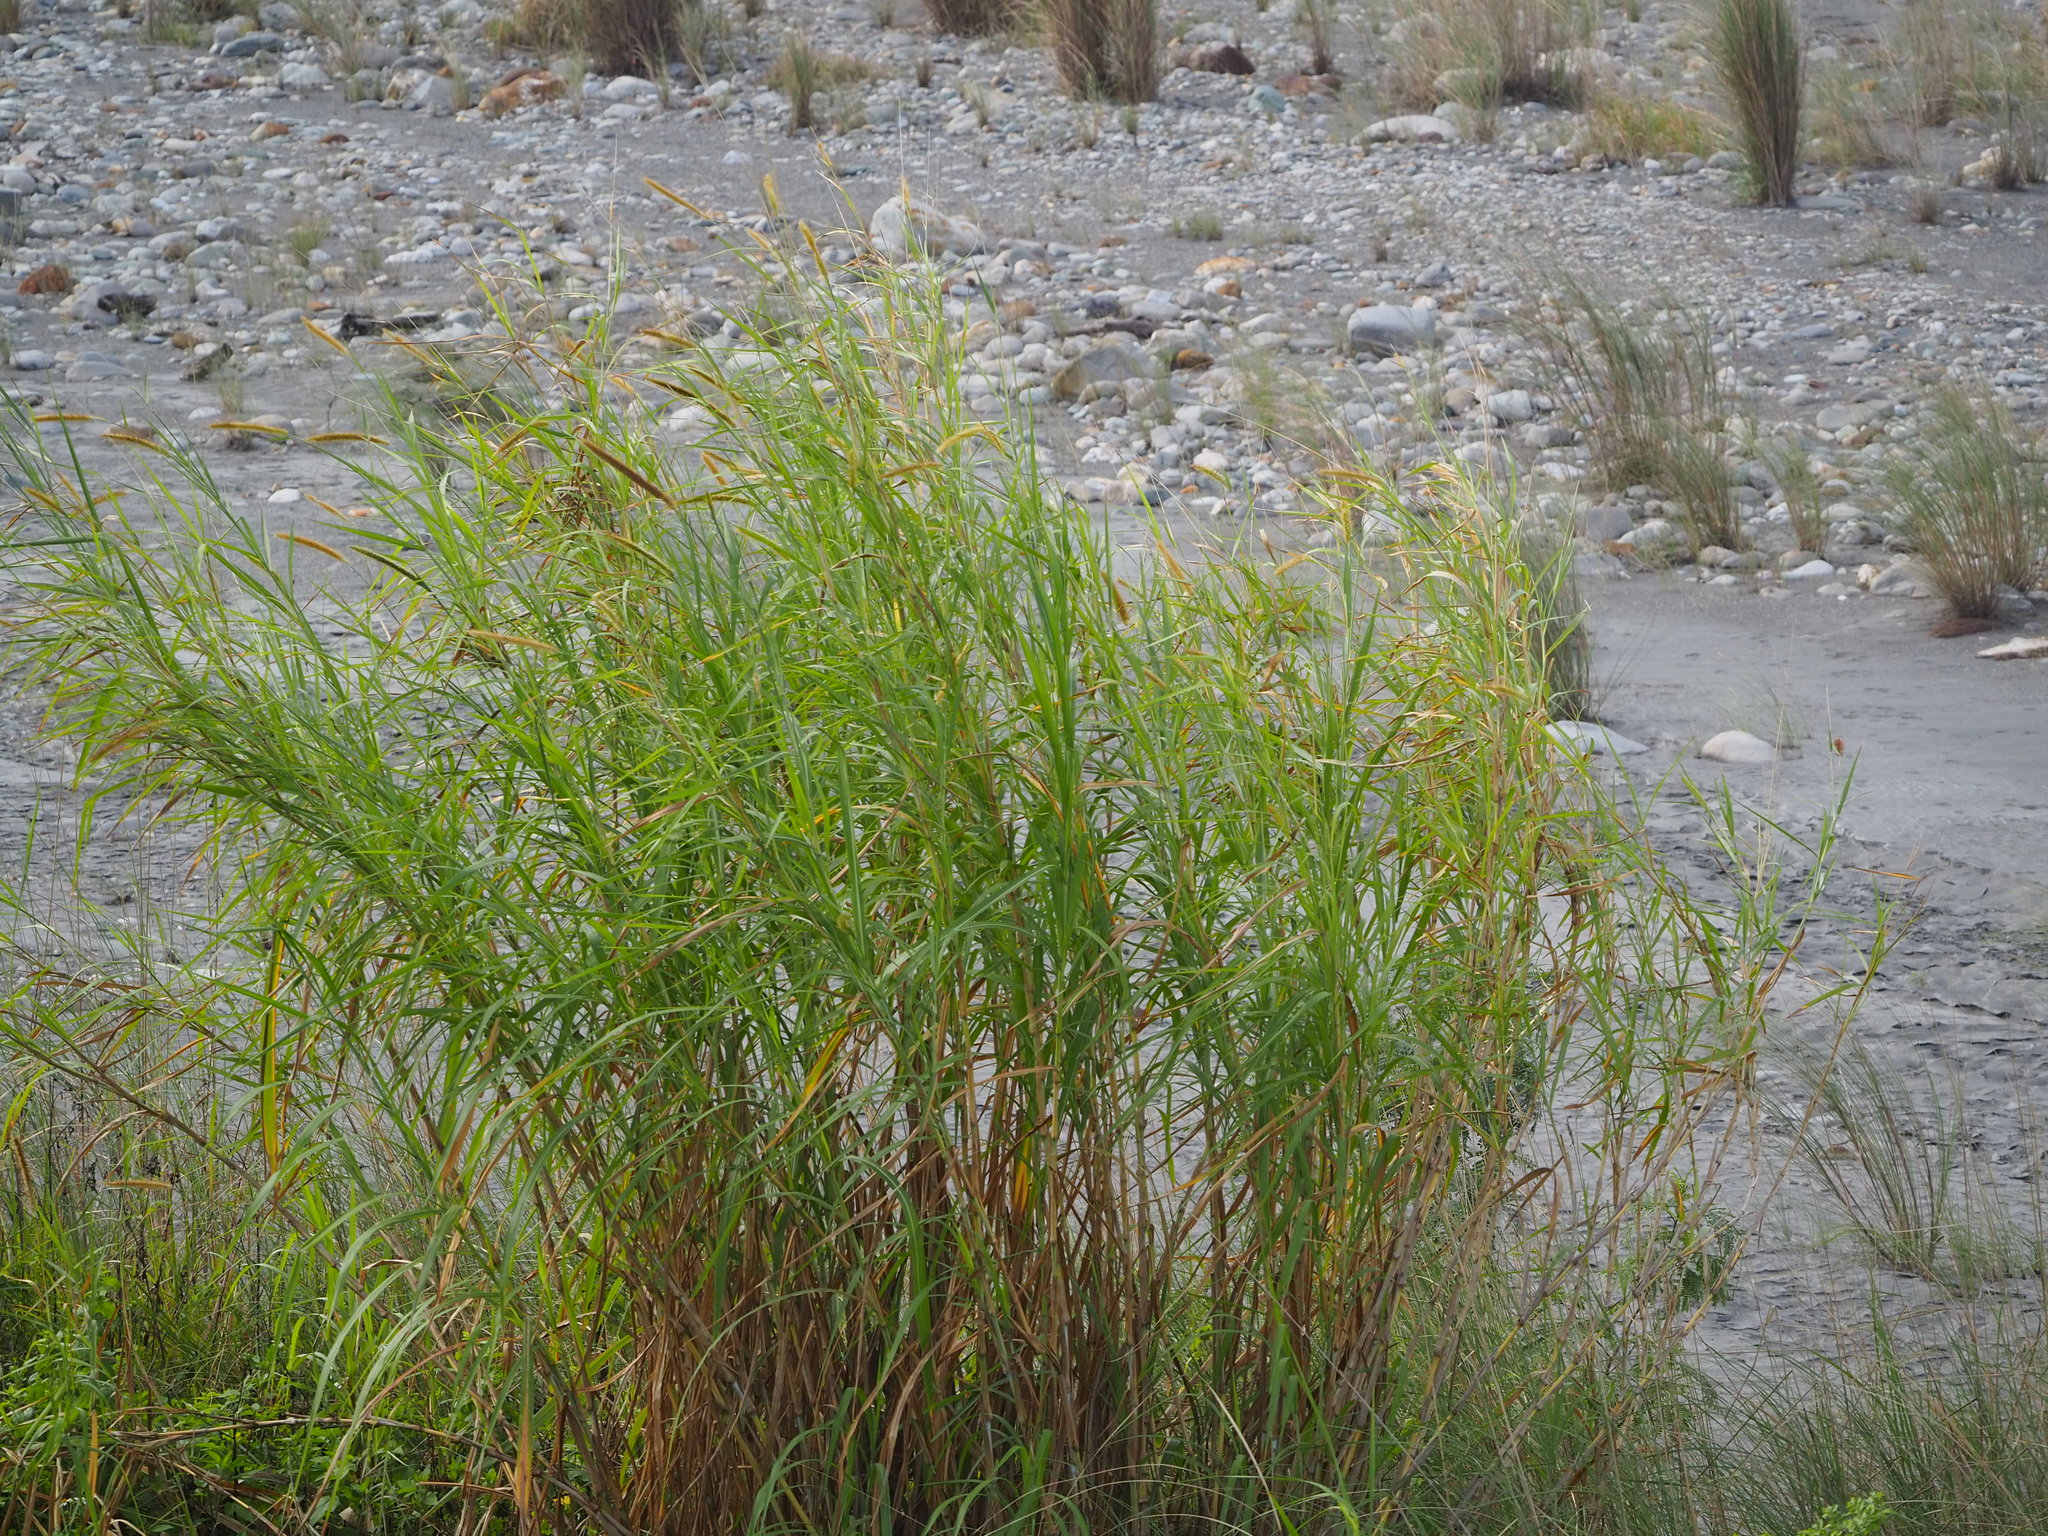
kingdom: Plantae
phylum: Tracheophyta
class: Liliopsida
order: Poales
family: Poaceae
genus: Cenchrus
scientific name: Cenchrus purpureus
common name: Elephant grass
